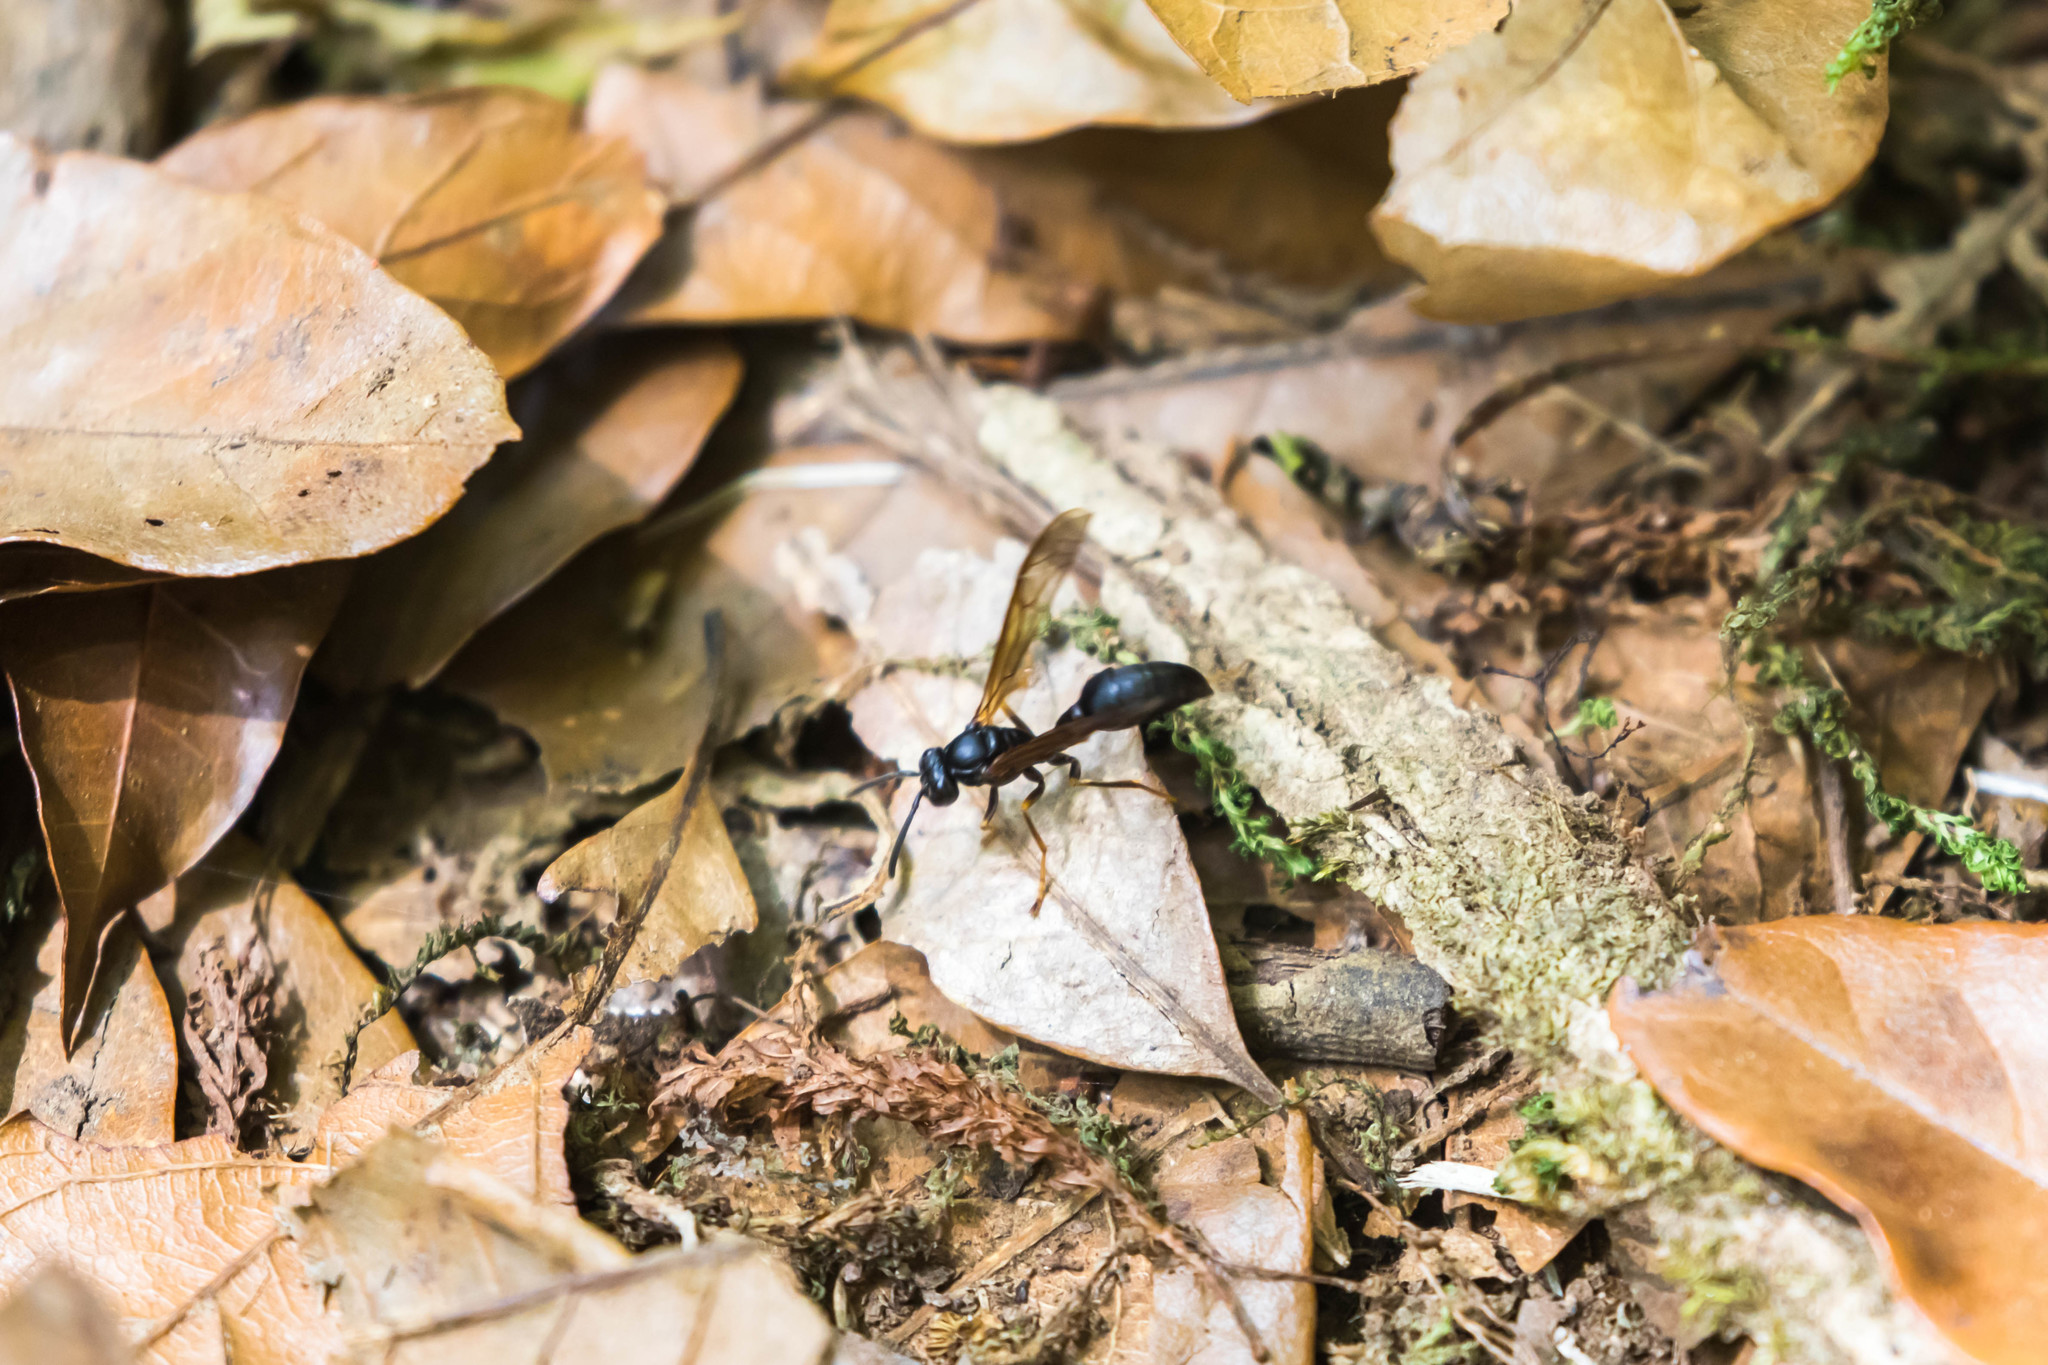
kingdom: Animalia
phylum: Arthropoda
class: Insecta
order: Hymenoptera
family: Vespidae
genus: Agelaia
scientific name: Agelaia panamensis
